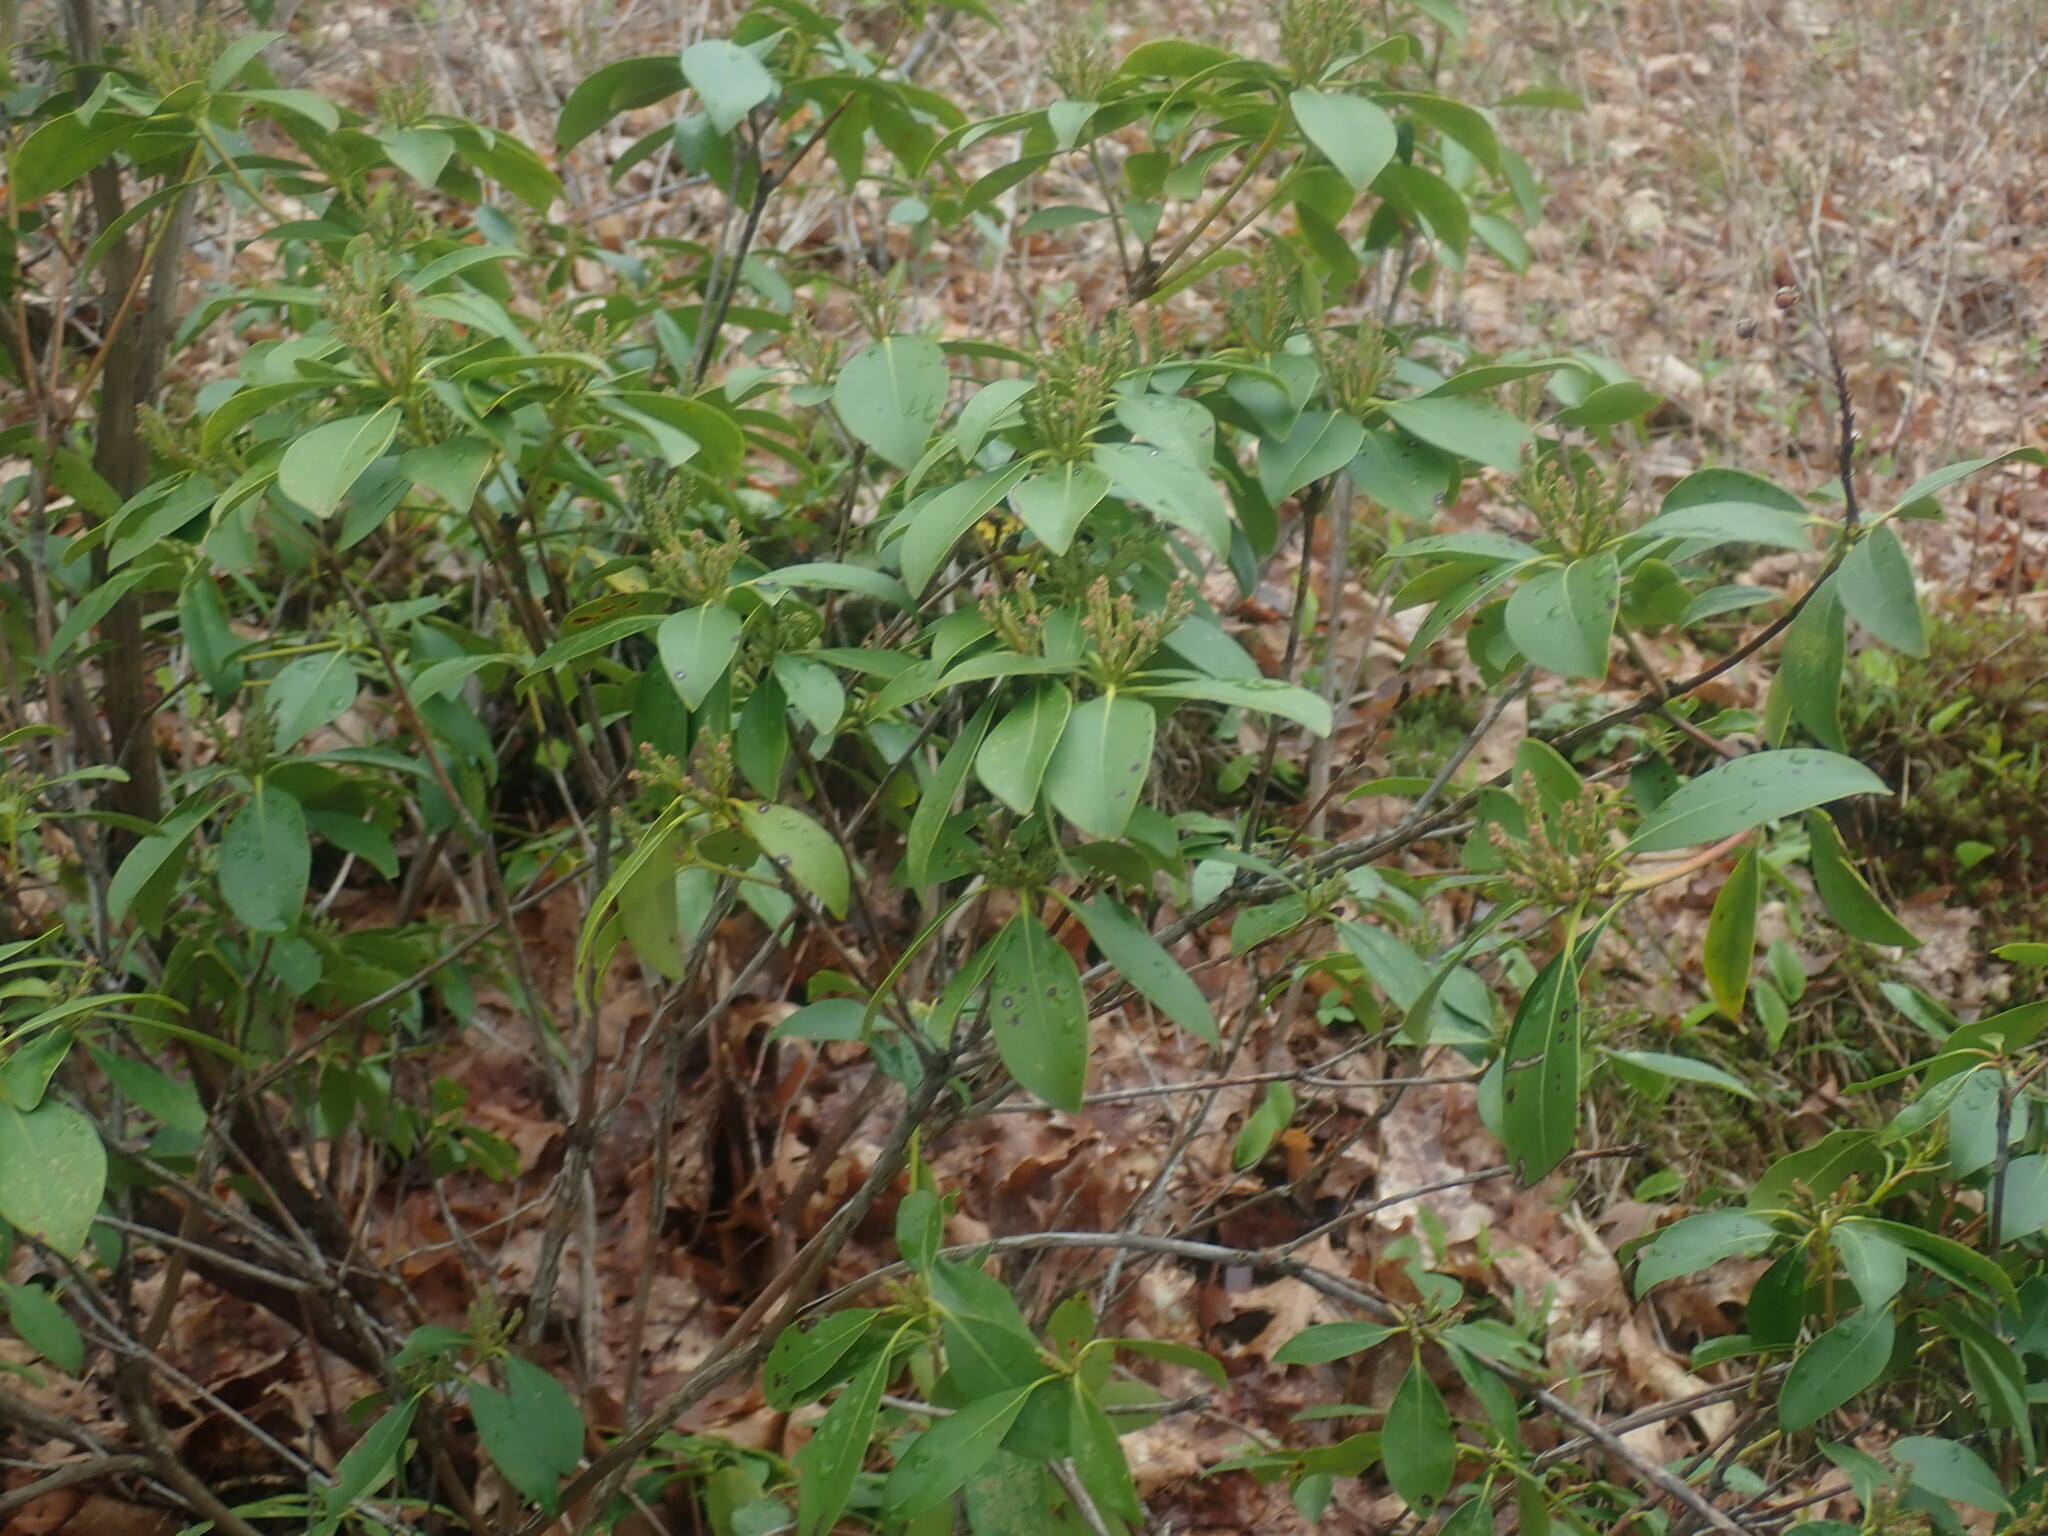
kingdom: Plantae
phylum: Tracheophyta
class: Magnoliopsida
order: Ericales
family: Ericaceae
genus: Kalmia
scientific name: Kalmia latifolia
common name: Mountain-laurel
